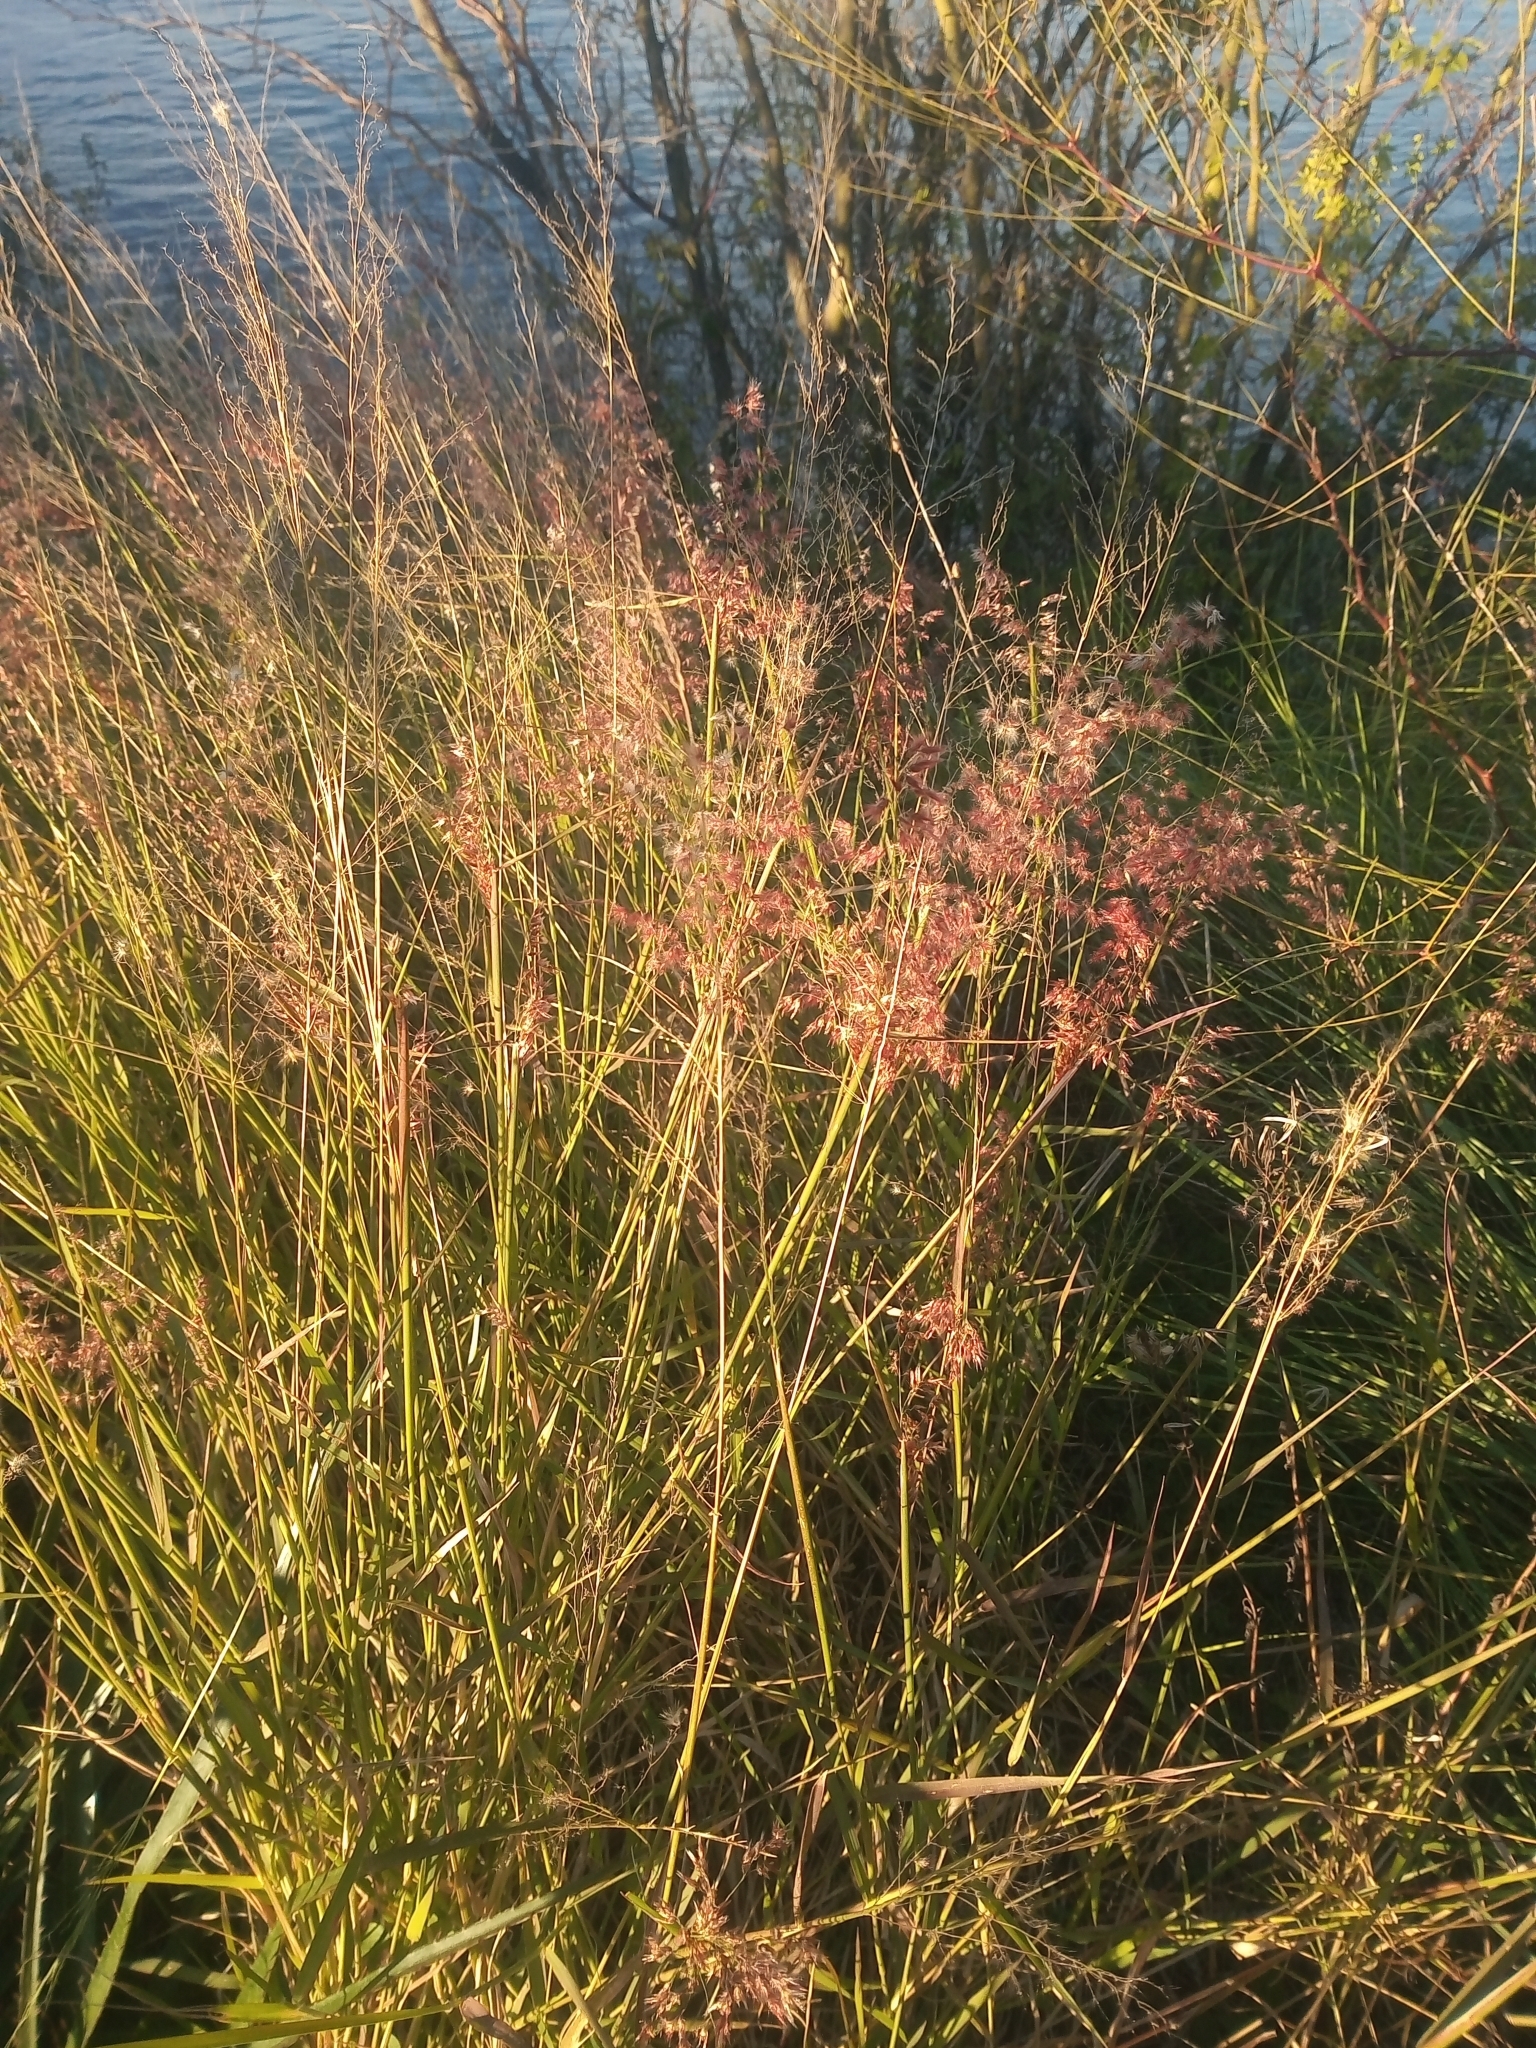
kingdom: Plantae
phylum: Tracheophyta
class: Liliopsida
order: Poales
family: Poaceae
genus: Melinis
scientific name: Melinis repens
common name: Rose natal grass
